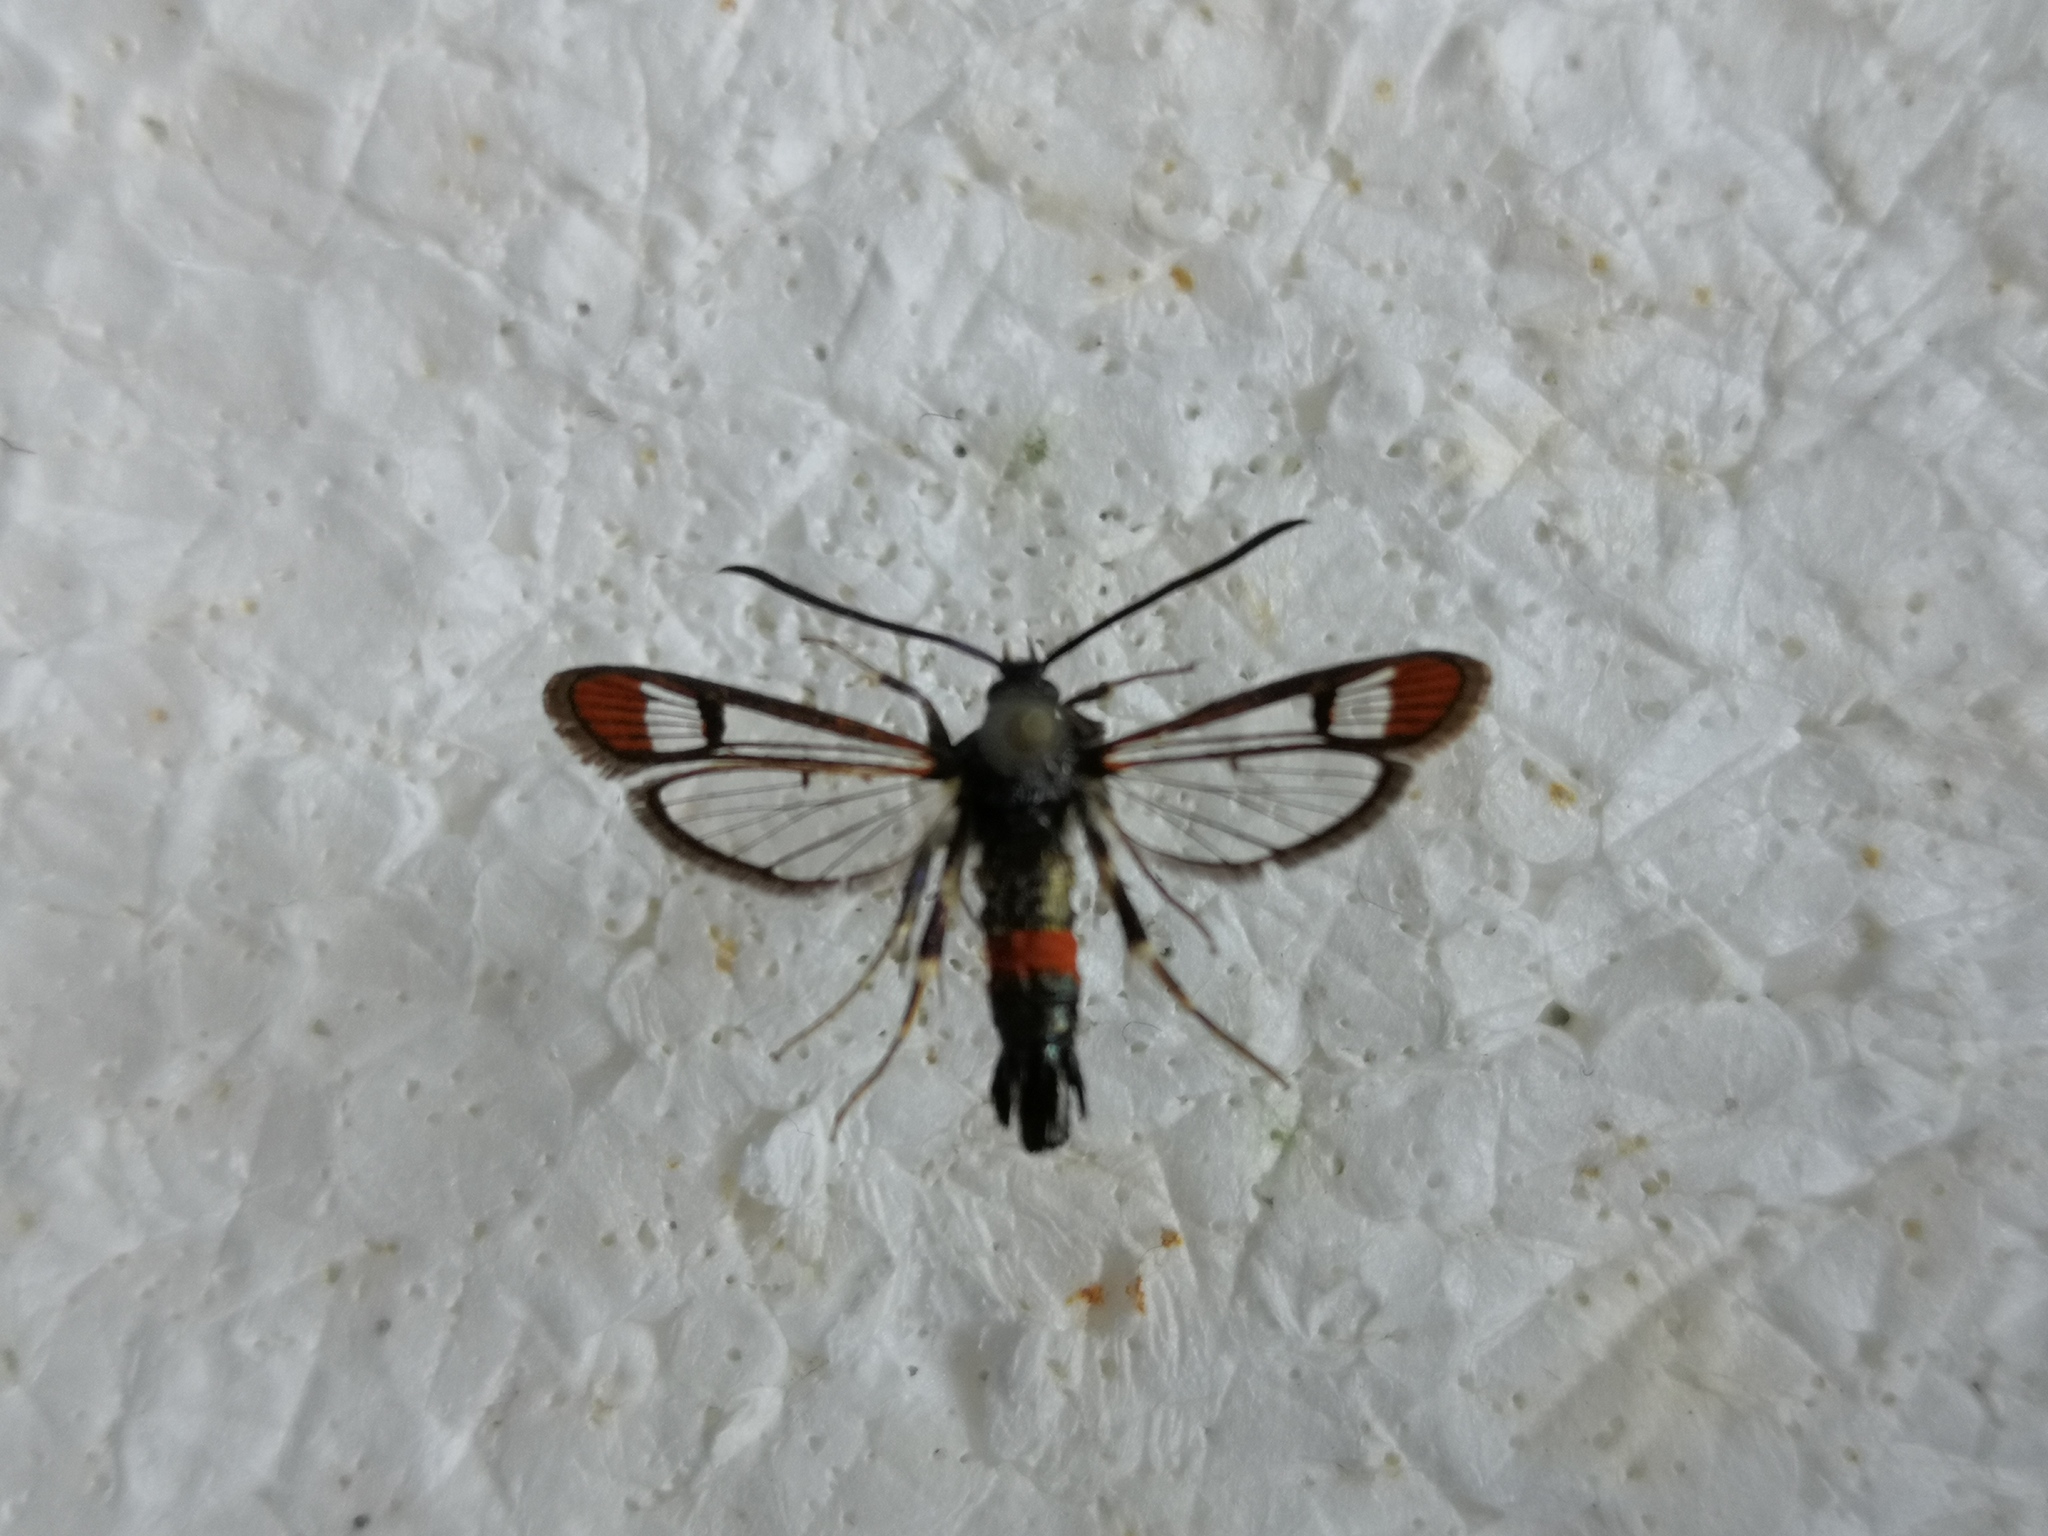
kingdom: Animalia
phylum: Arthropoda
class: Insecta
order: Lepidoptera
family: Sesiidae
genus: Synanthedon
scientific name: Synanthedon formicaeformis
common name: Red-tipped clearwing
